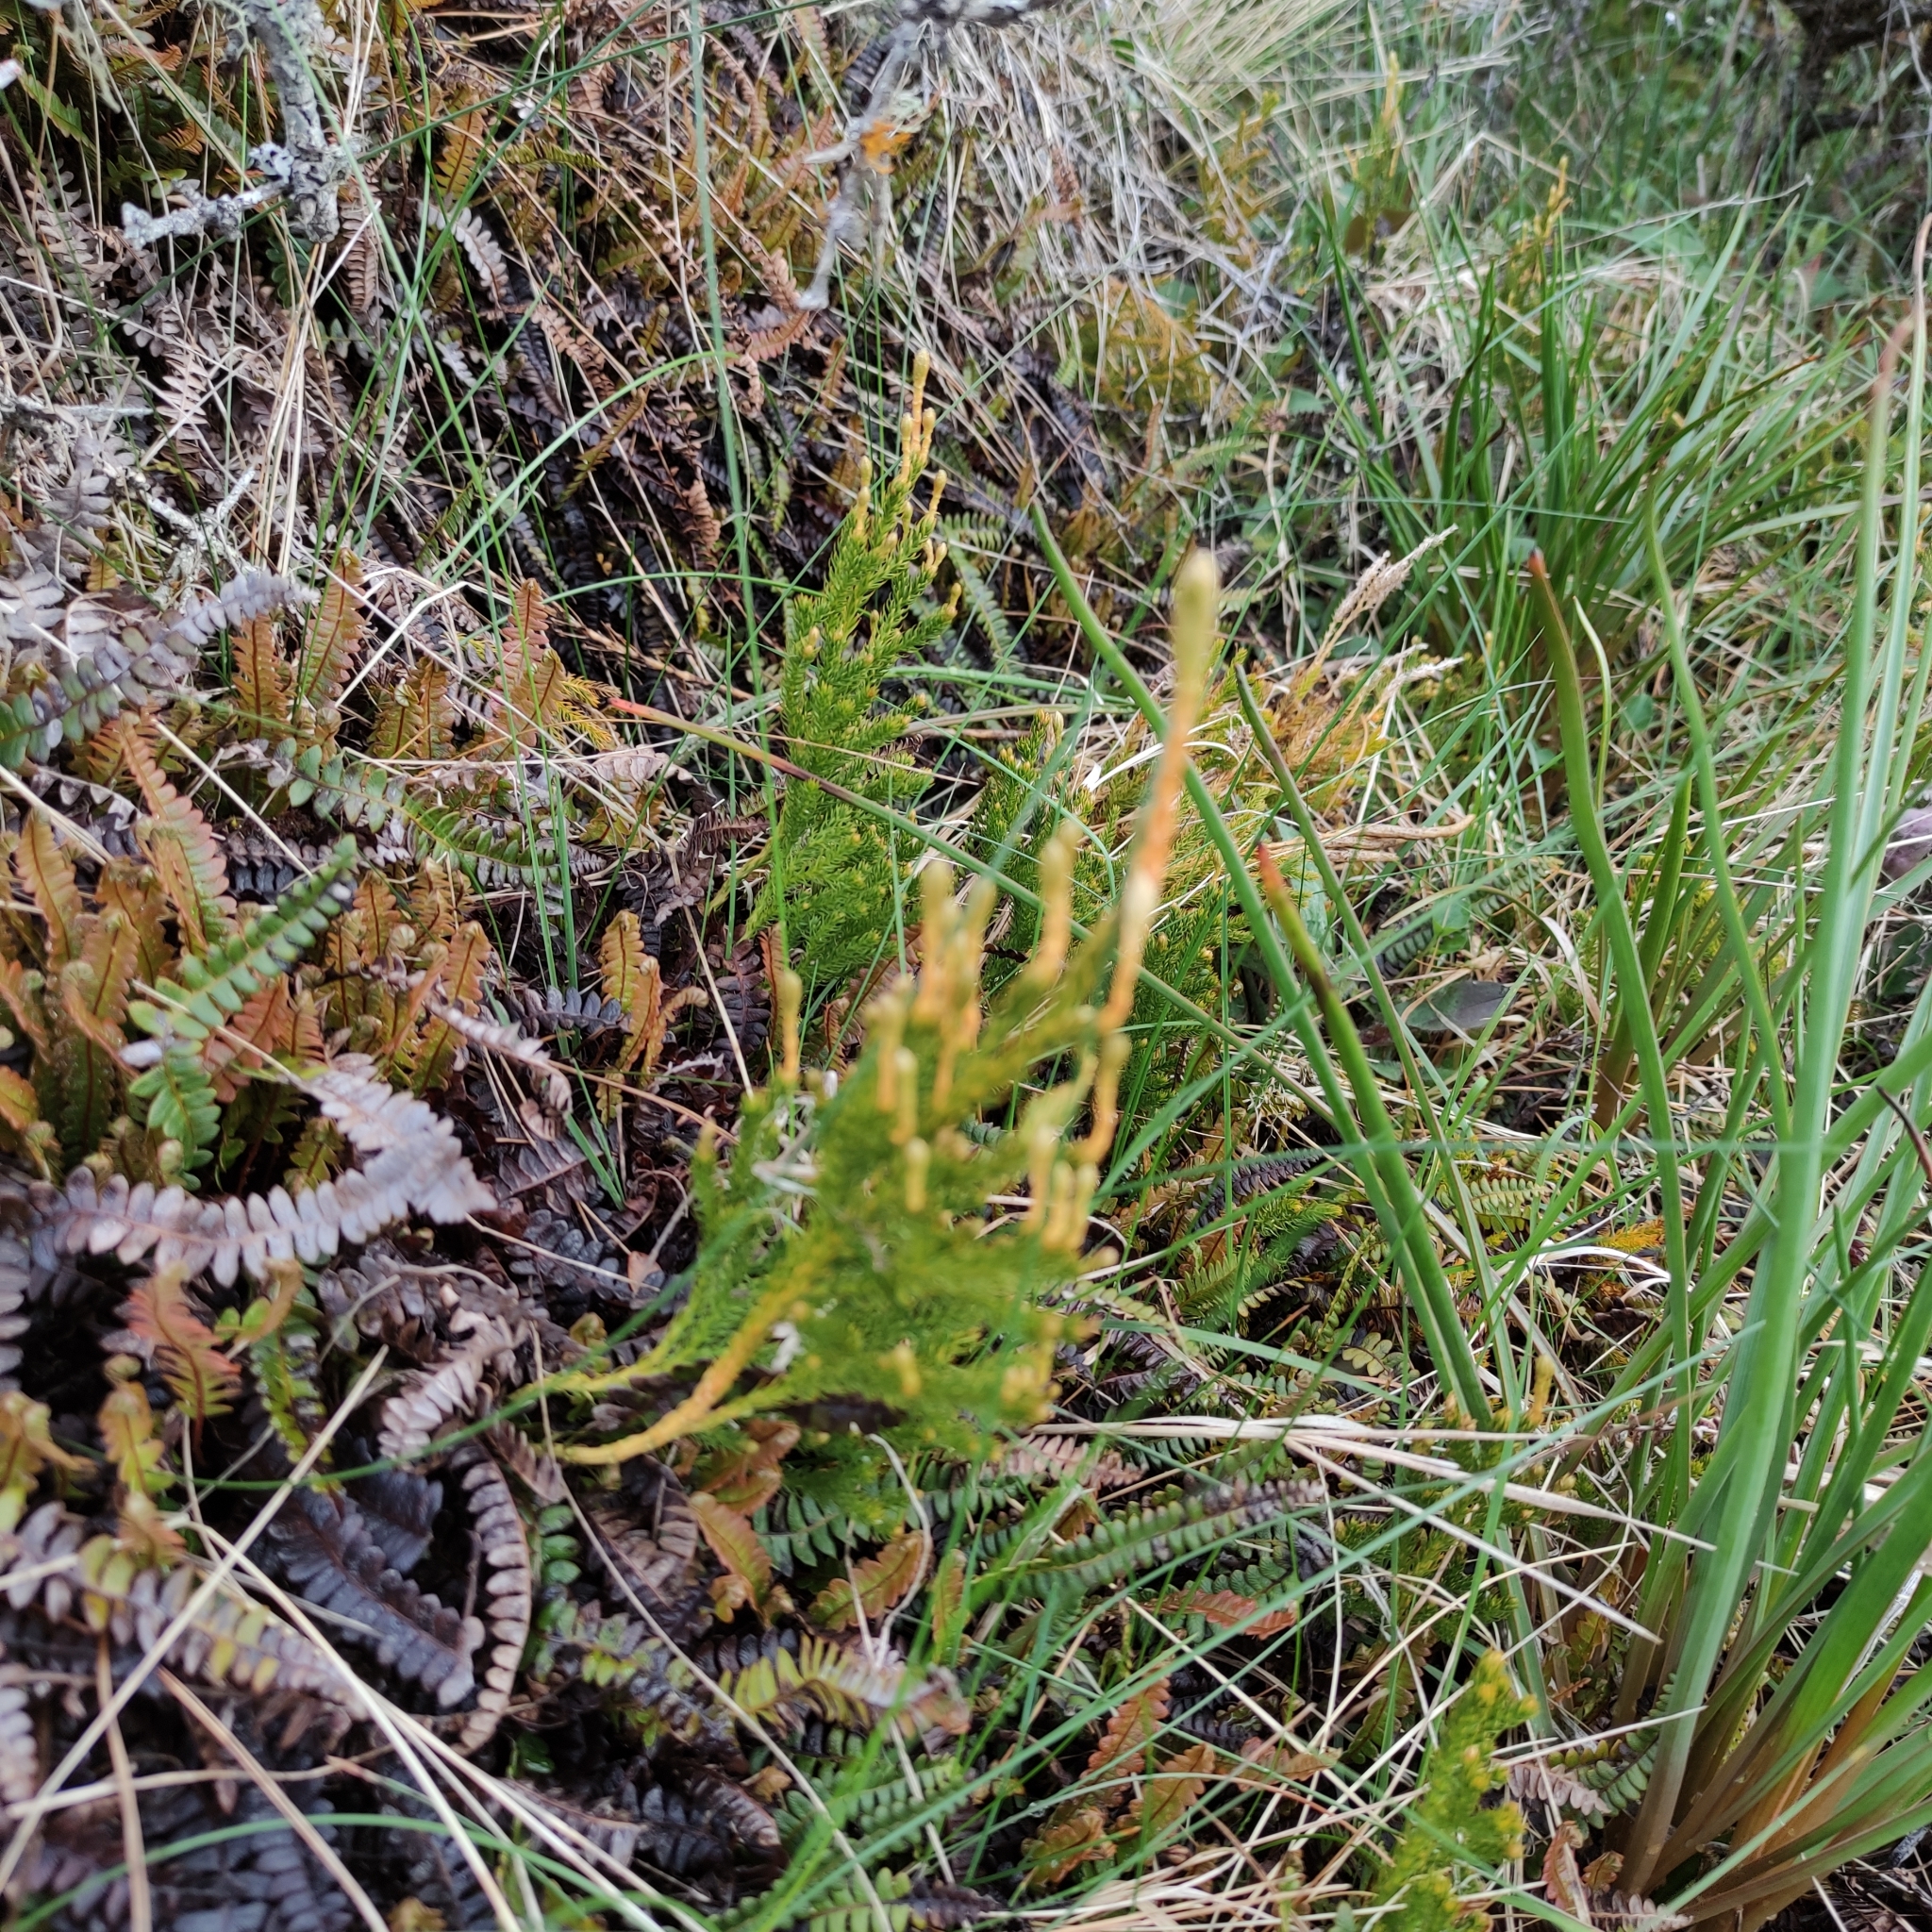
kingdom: Plantae
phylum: Tracheophyta
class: Lycopodiopsida
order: Lycopodiales
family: Lycopodiaceae
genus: Austrolycopodium
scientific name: Austrolycopodium fastigiatum
